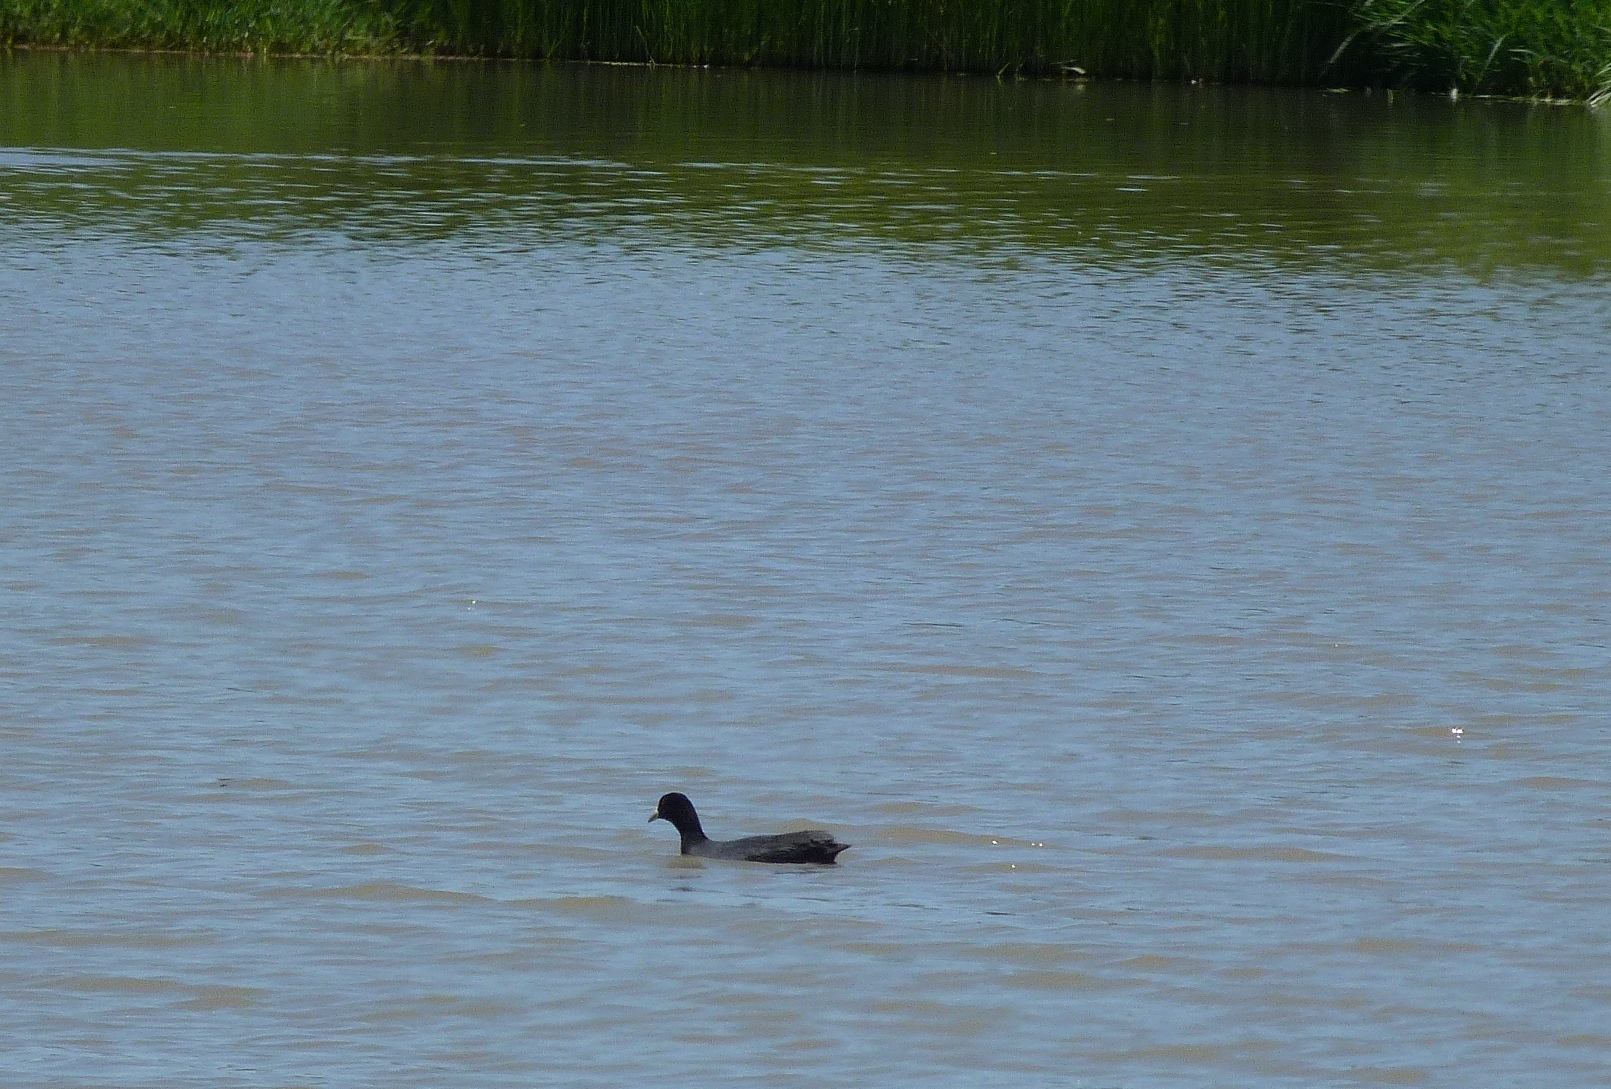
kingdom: Animalia
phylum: Chordata
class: Aves
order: Gruiformes
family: Rallidae
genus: Fulica
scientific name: Fulica atra
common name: Eurasian coot
